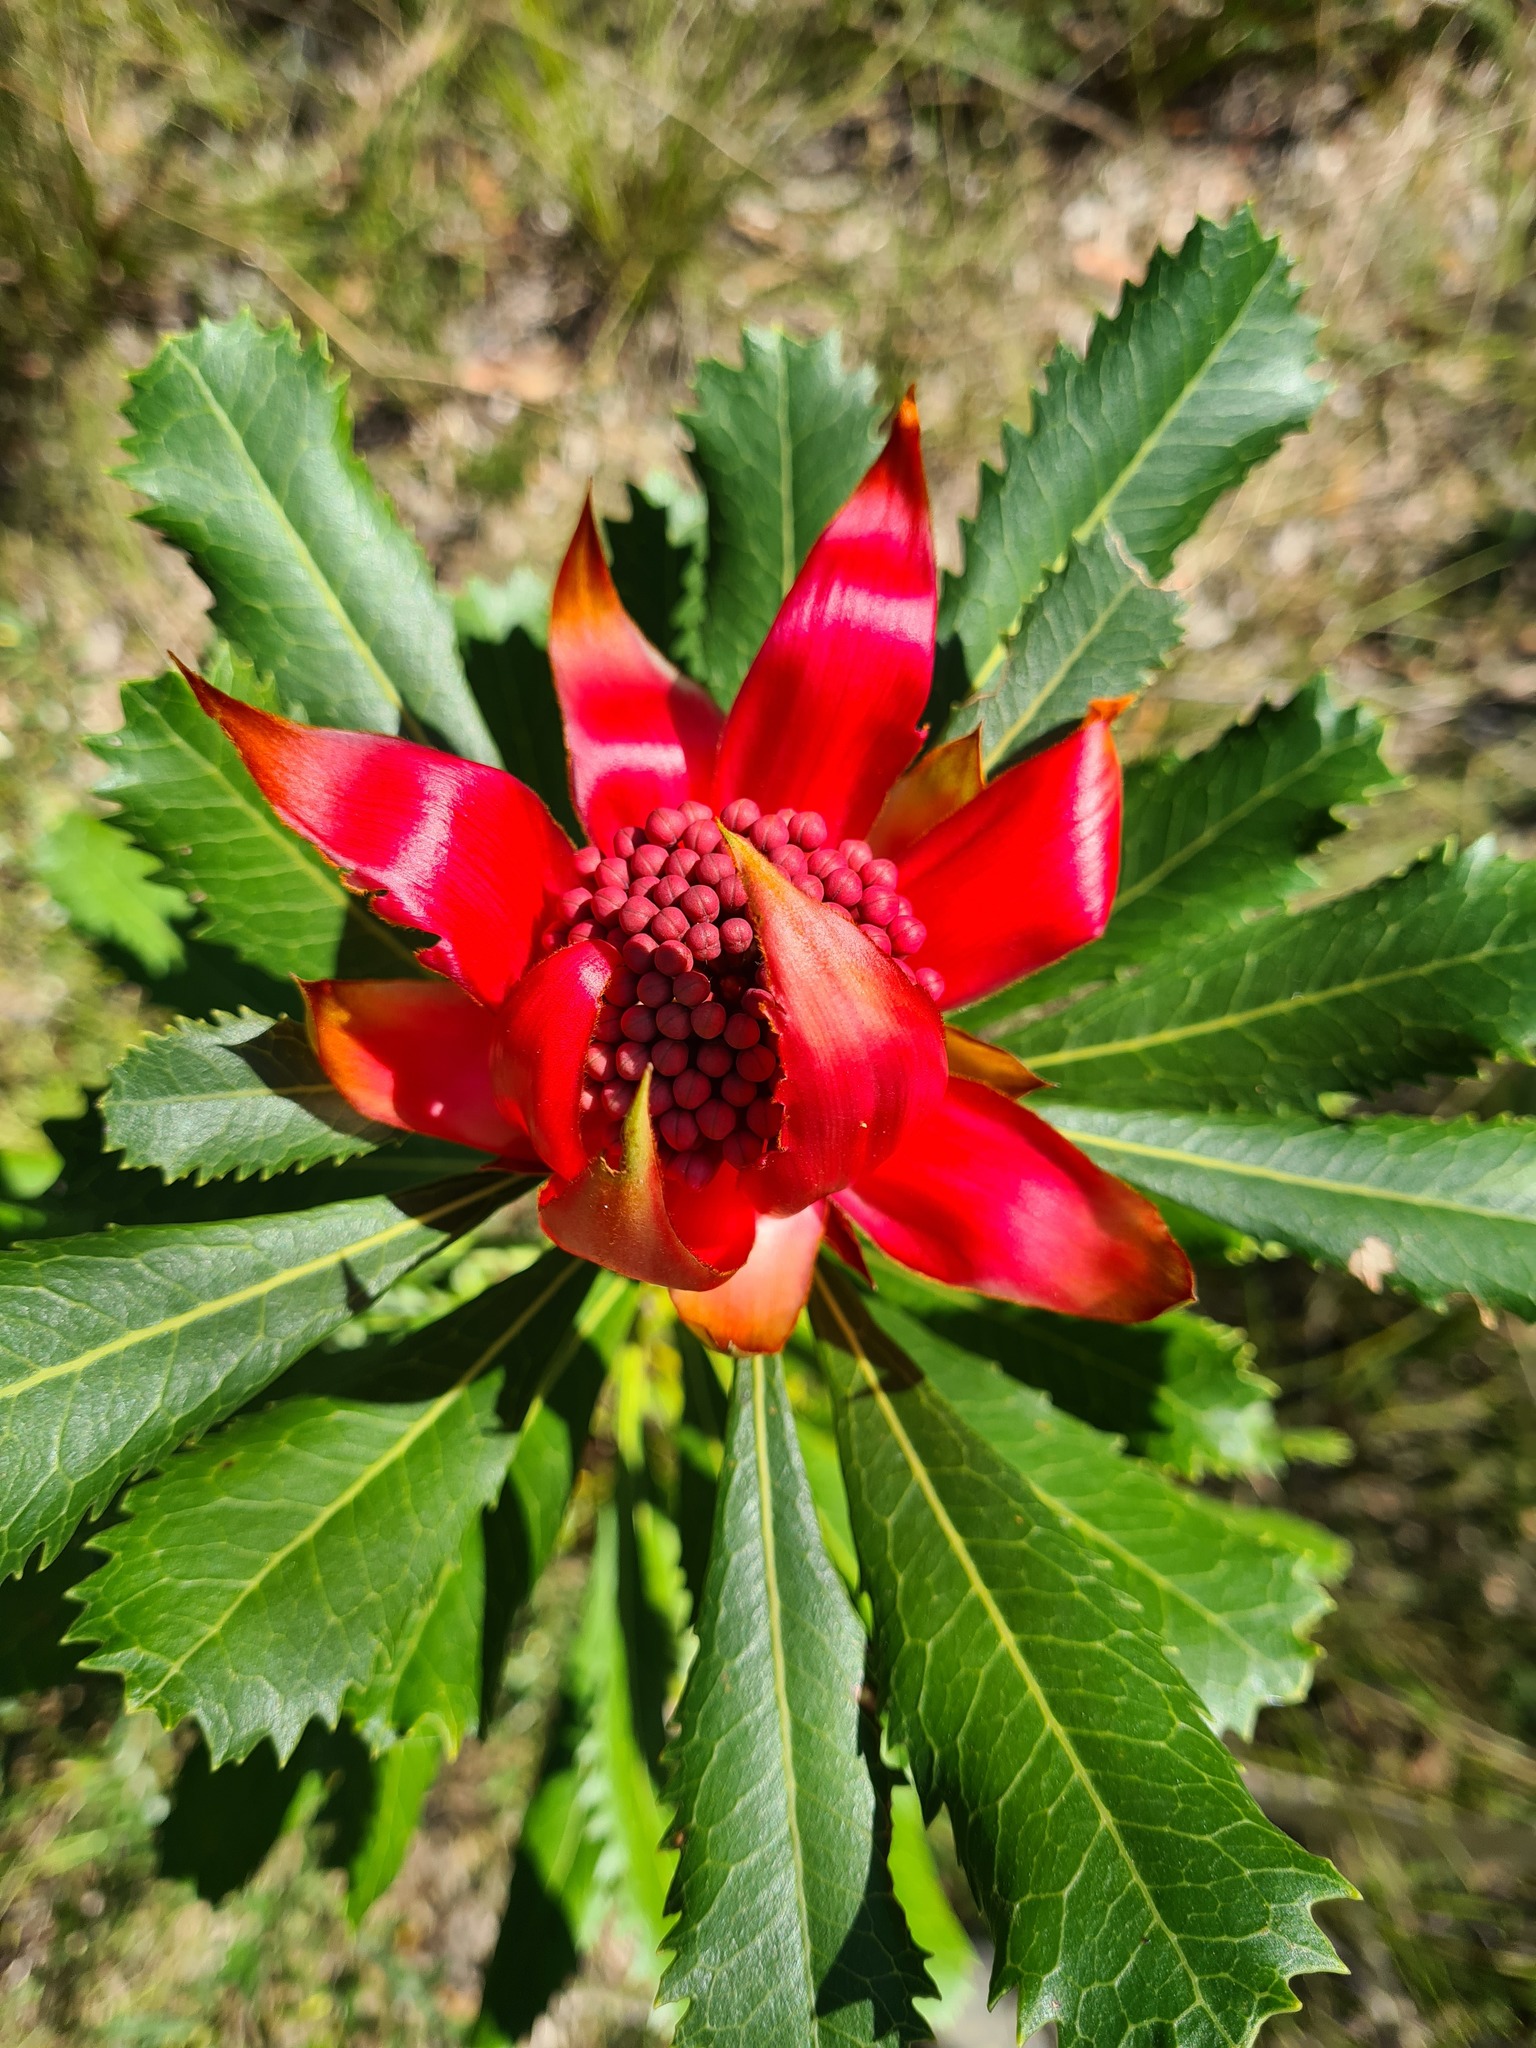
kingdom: Plantae
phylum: Tracheophyta
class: Magnoliopsida
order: Proteales
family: Proteaceae
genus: Telopea
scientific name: Telopea speciosissima
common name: New south wales waratah
